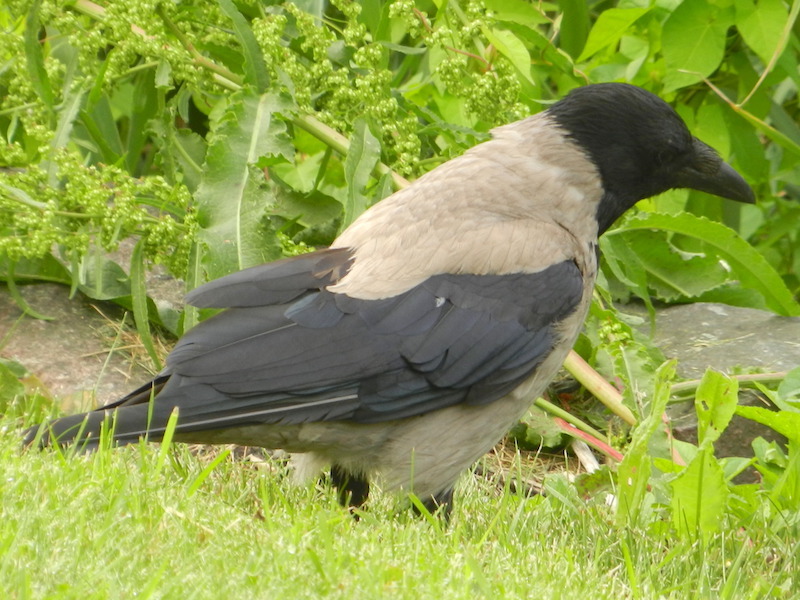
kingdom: Animalia
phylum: Chordata
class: Aves
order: Passeriformes
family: Corvidae
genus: Corvus
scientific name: Corvus cornix
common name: Hooded crow
